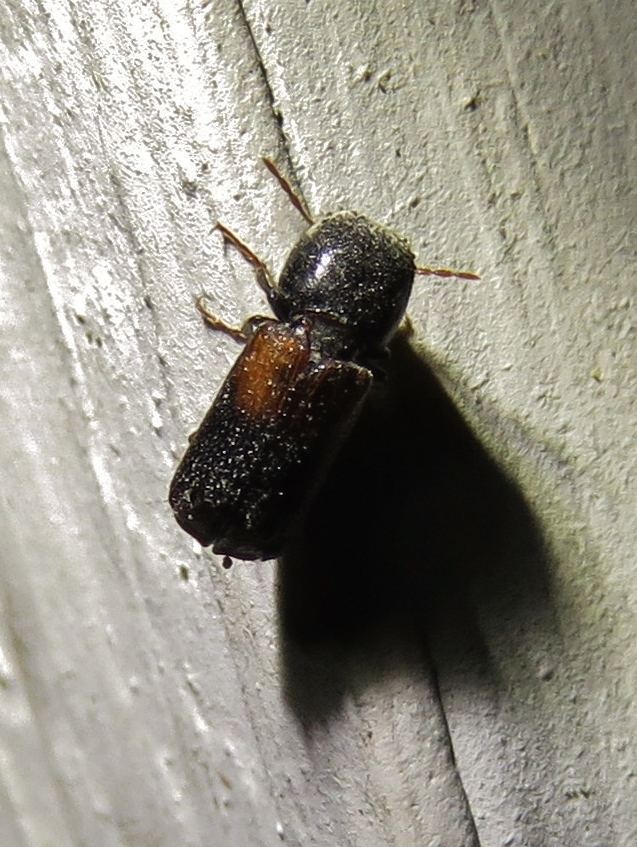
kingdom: Animalia
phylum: Arthropoda
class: Insecta
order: Coleoptera
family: Bostrichidae
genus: Xylobiops
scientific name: Xylobiops basilaris
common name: Red-shouldered bostrichid
